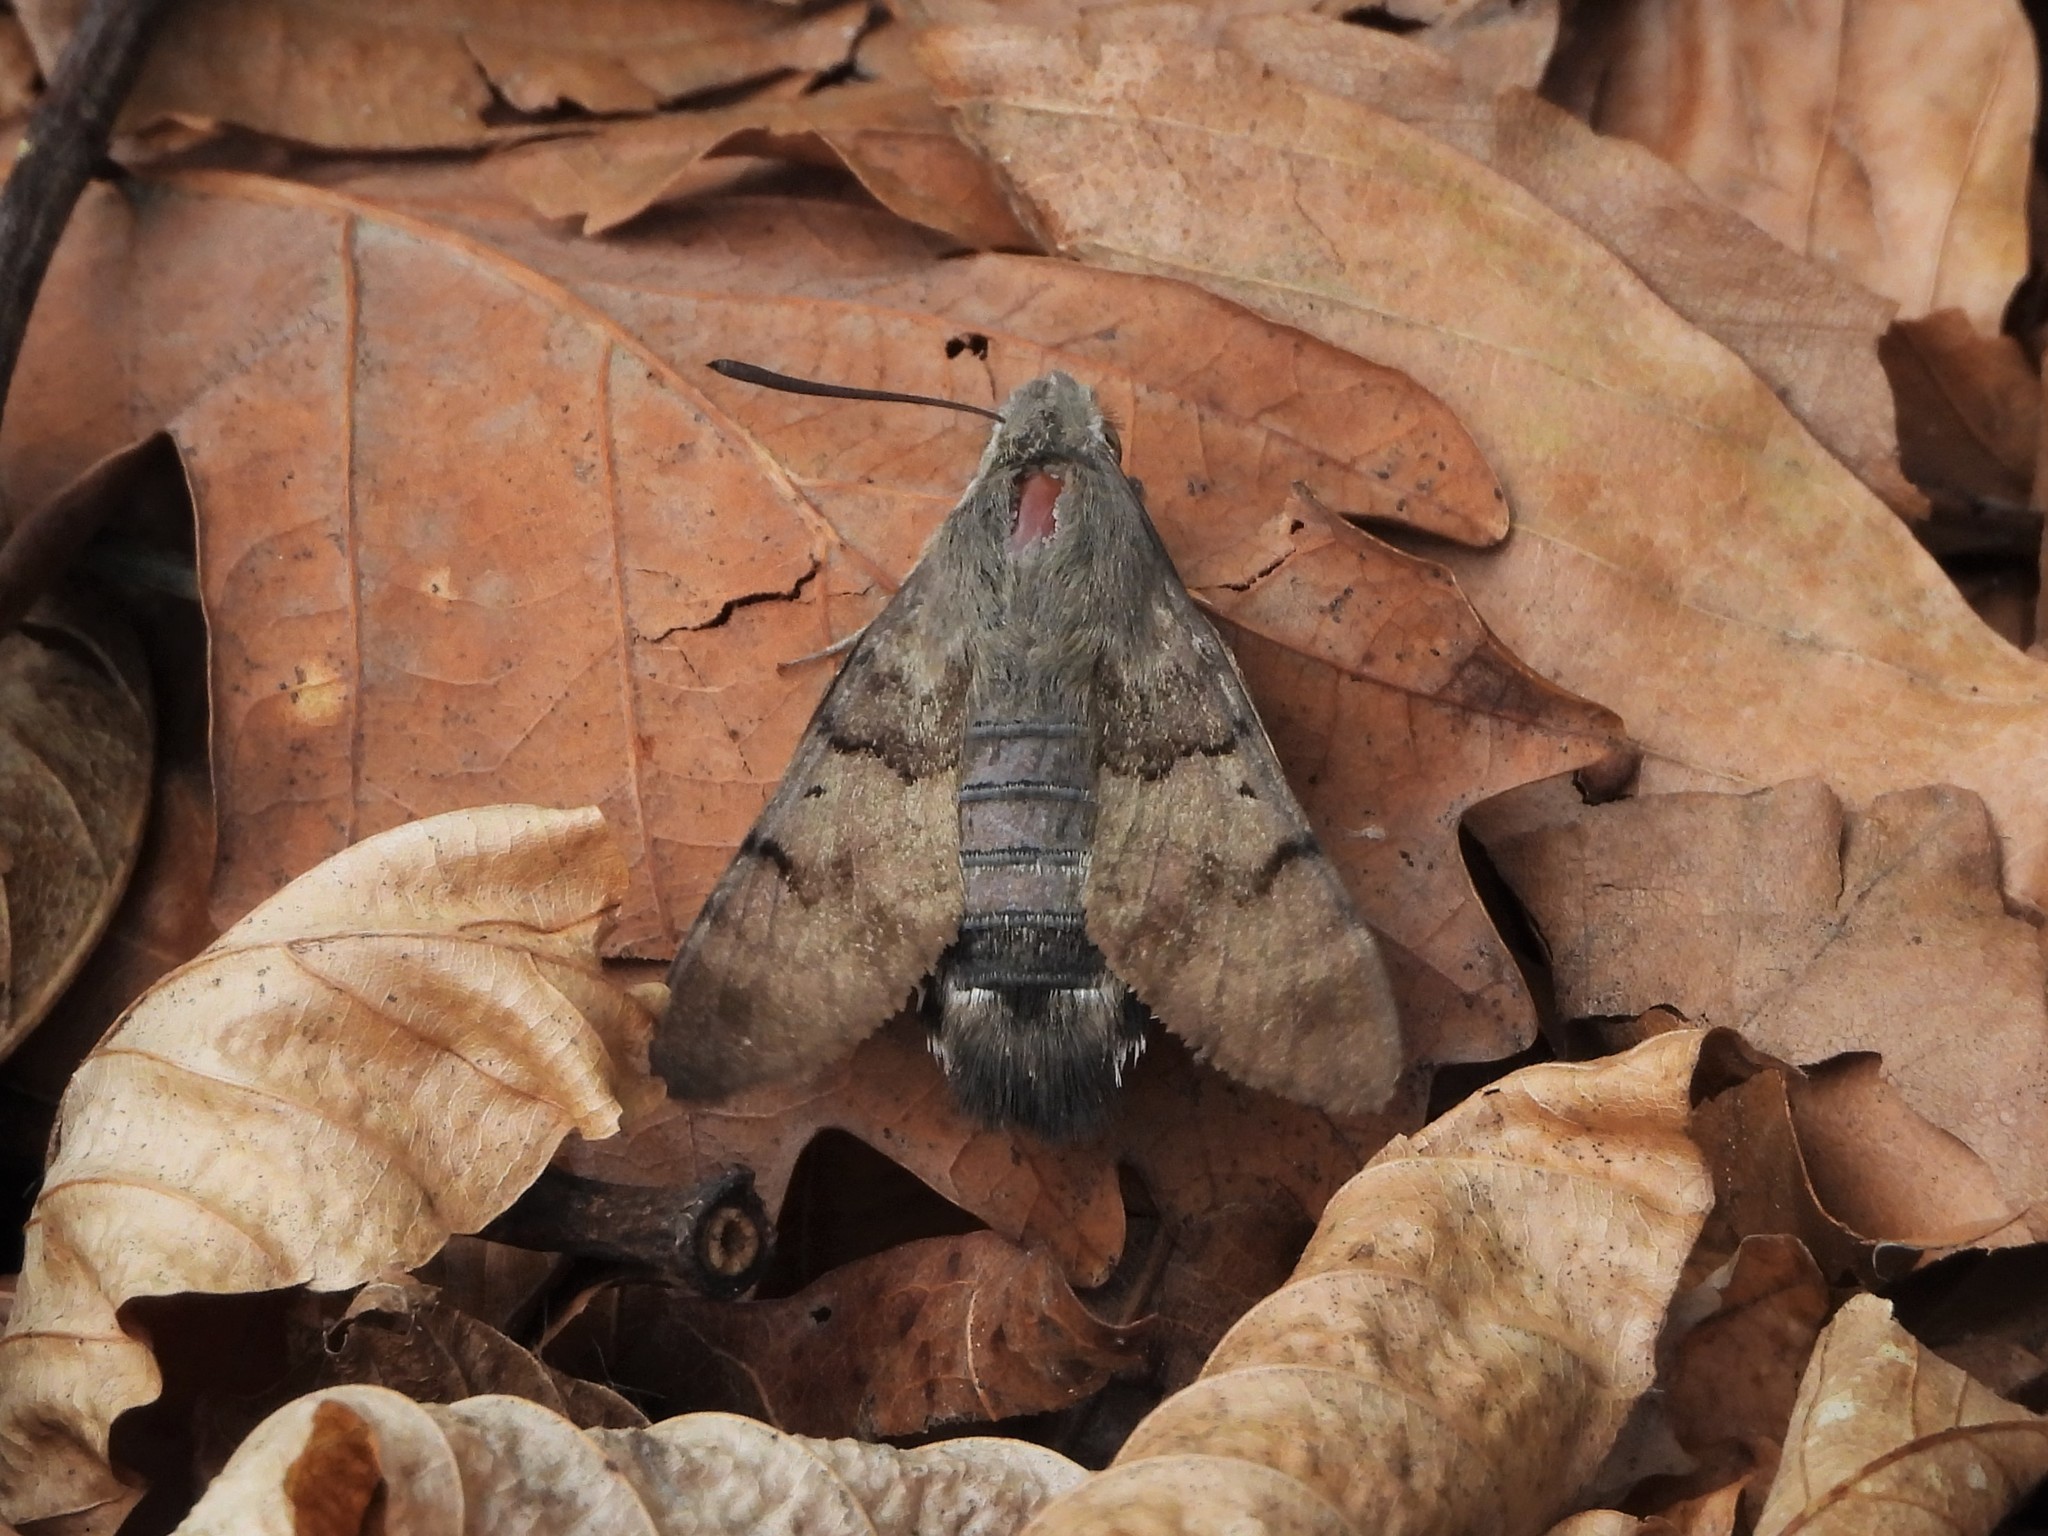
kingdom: Animalia
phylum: Arthropoda
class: Insecta
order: Lepidoptera
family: Sphingidae
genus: Macroglossum
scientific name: Macroglossum stellatarum
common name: Humming-bird hawk-moth
